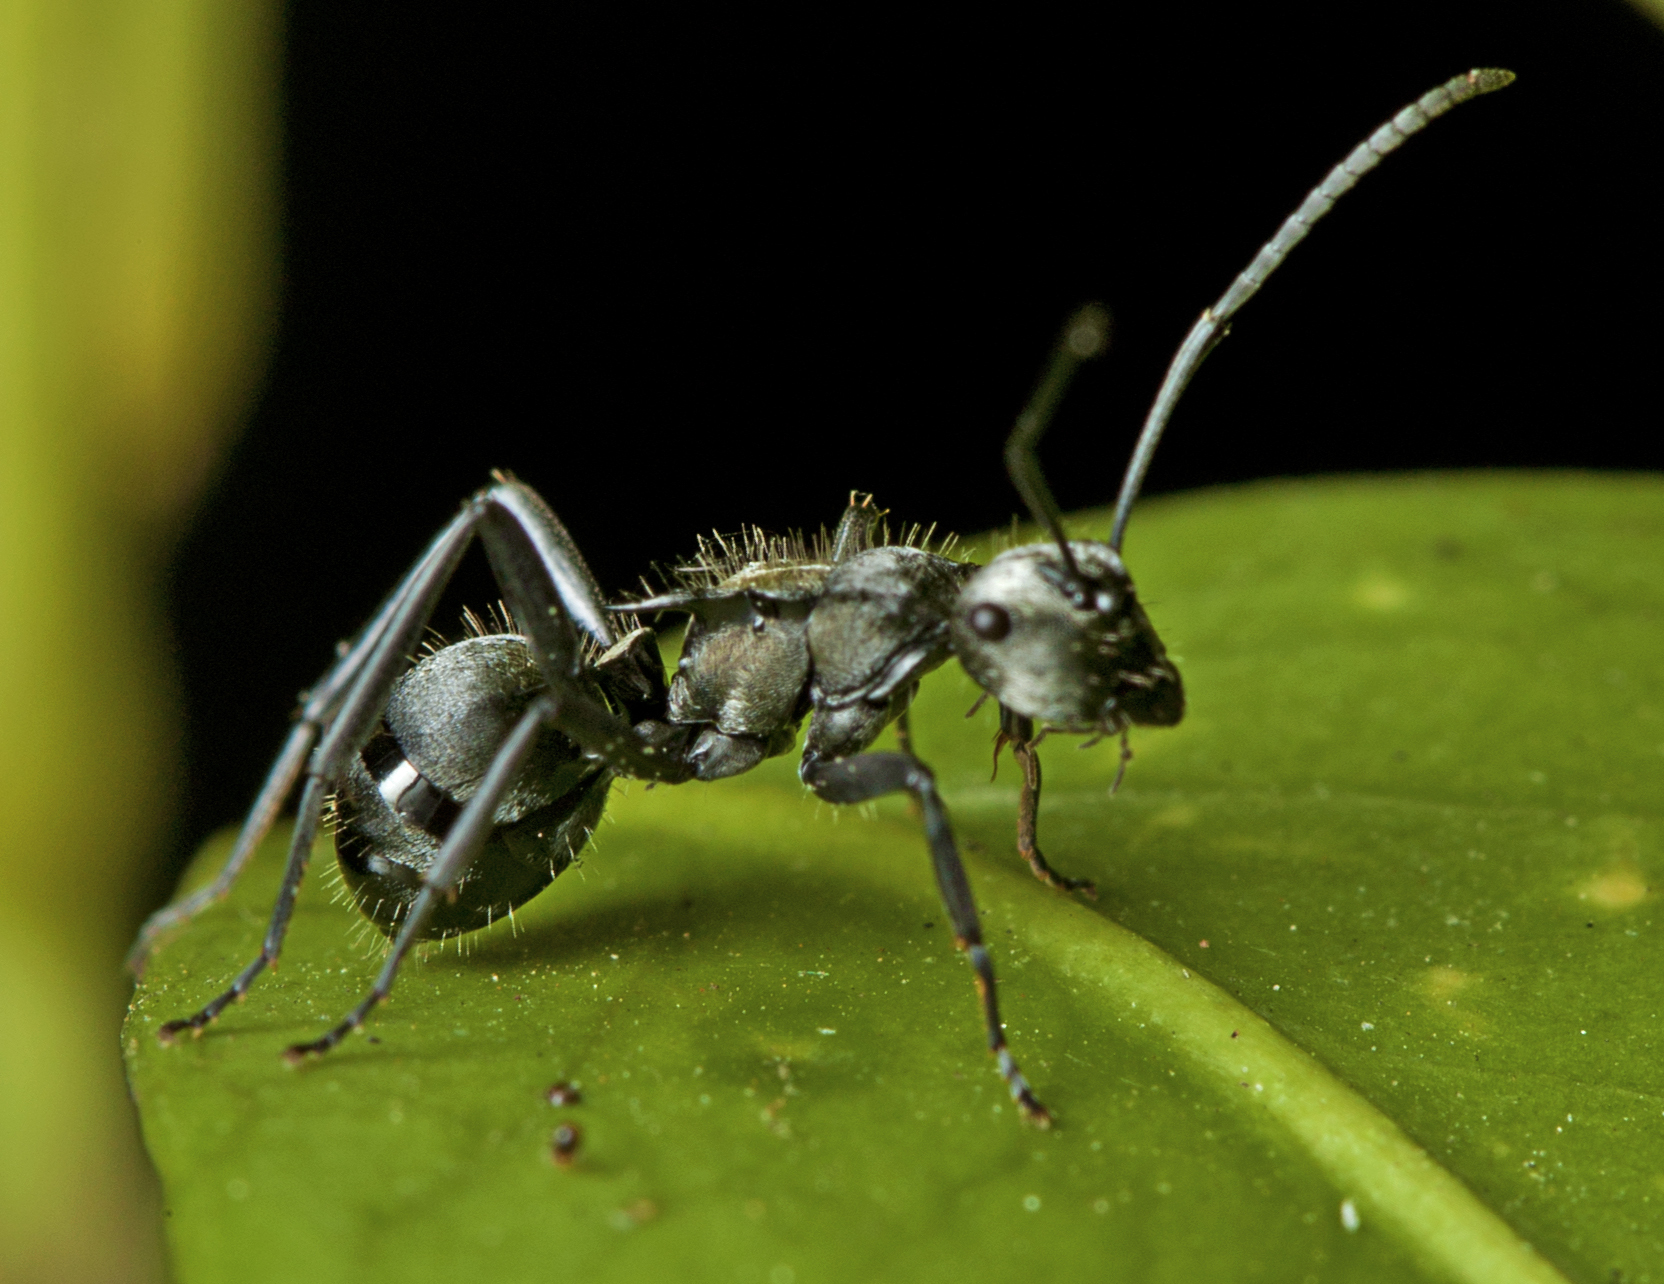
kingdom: Animalia
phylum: Arthropoda
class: Insecta
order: Hymenoptera
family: Formicidae
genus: Polyrhachis
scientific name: Polyrhachis daemeli
